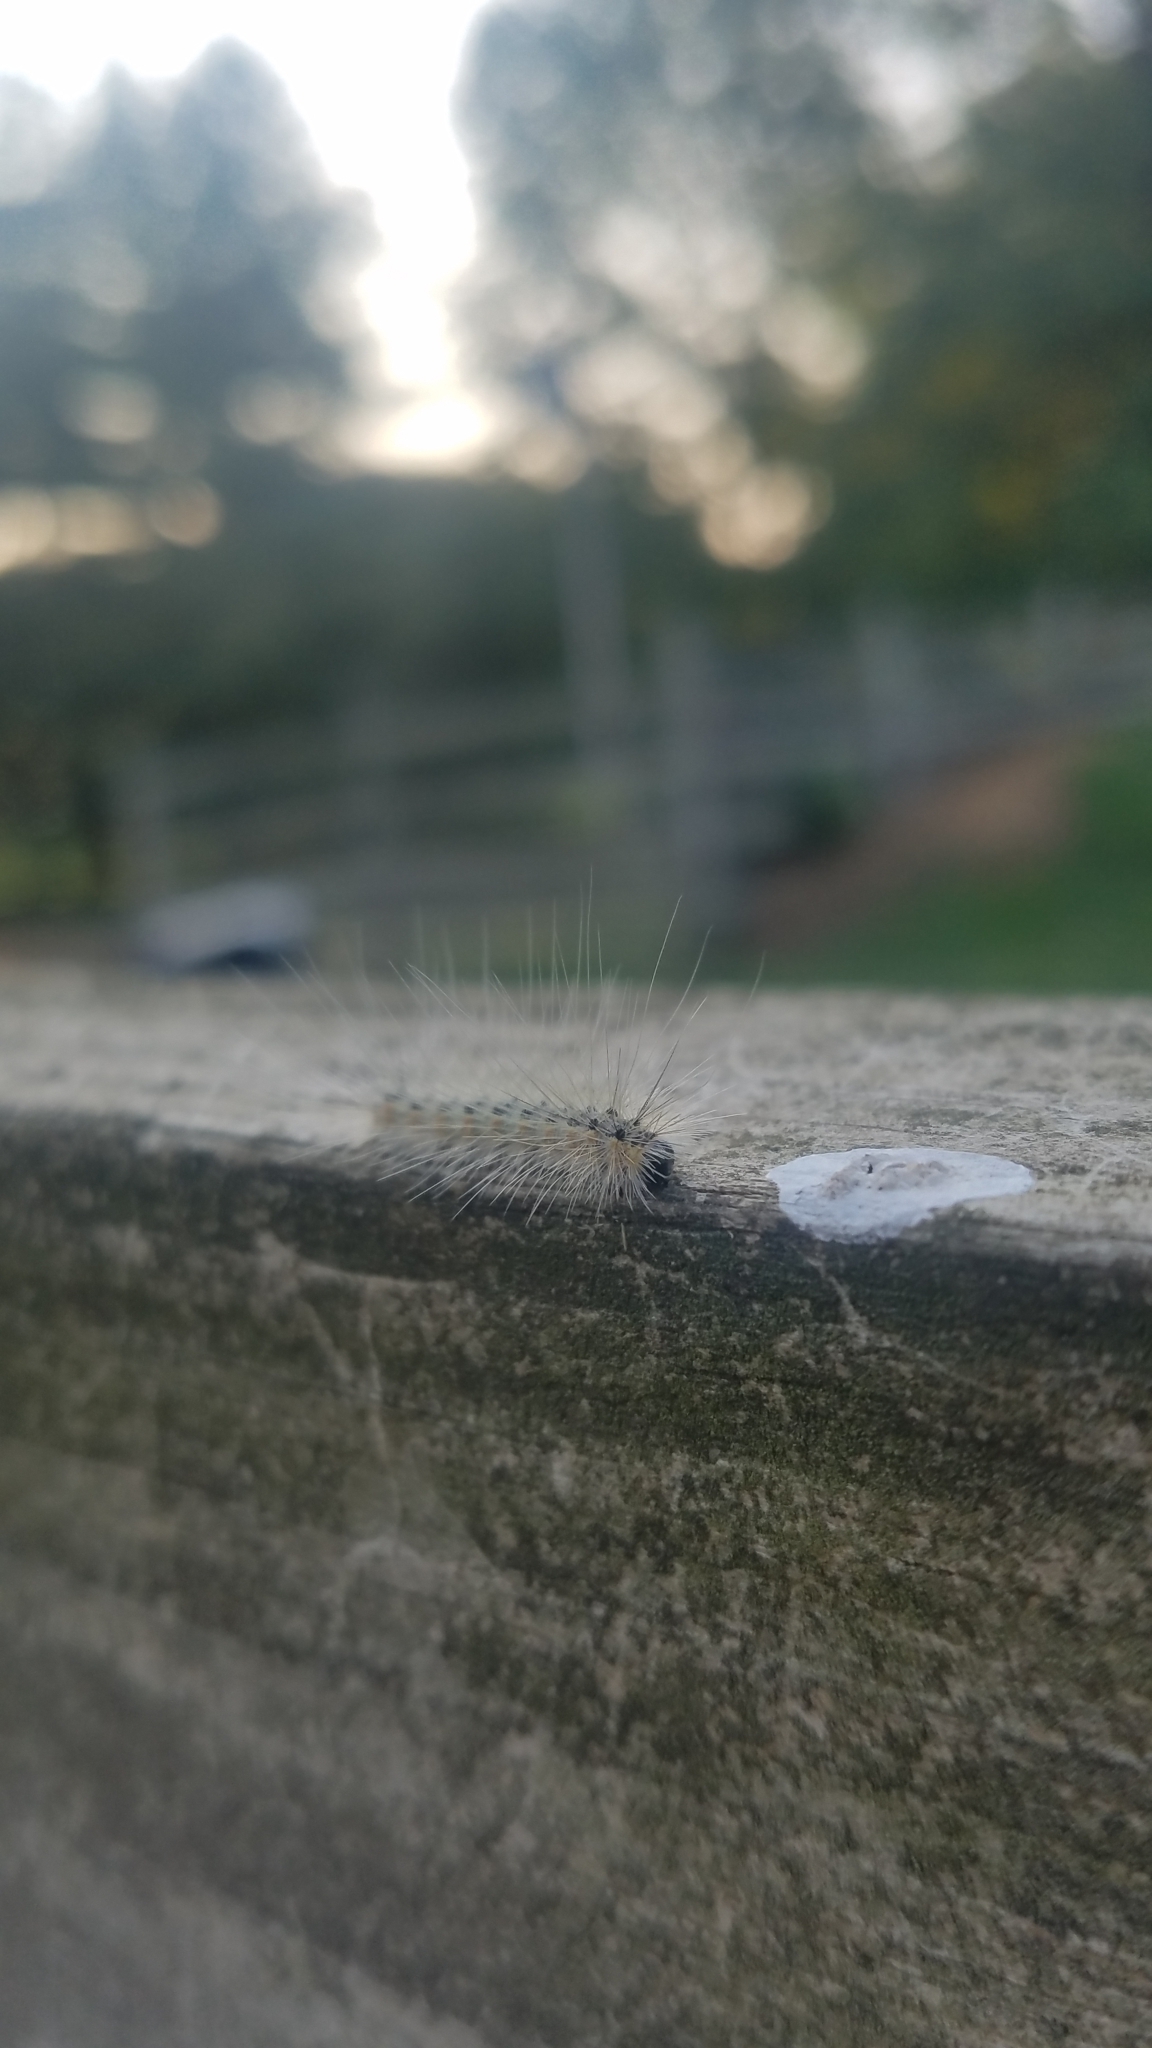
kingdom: Animalia
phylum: Arthropoda
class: Insecta
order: Lepidoptera
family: Erebidae
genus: Hyphantria
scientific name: Hyphantria cunea
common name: American white moth
